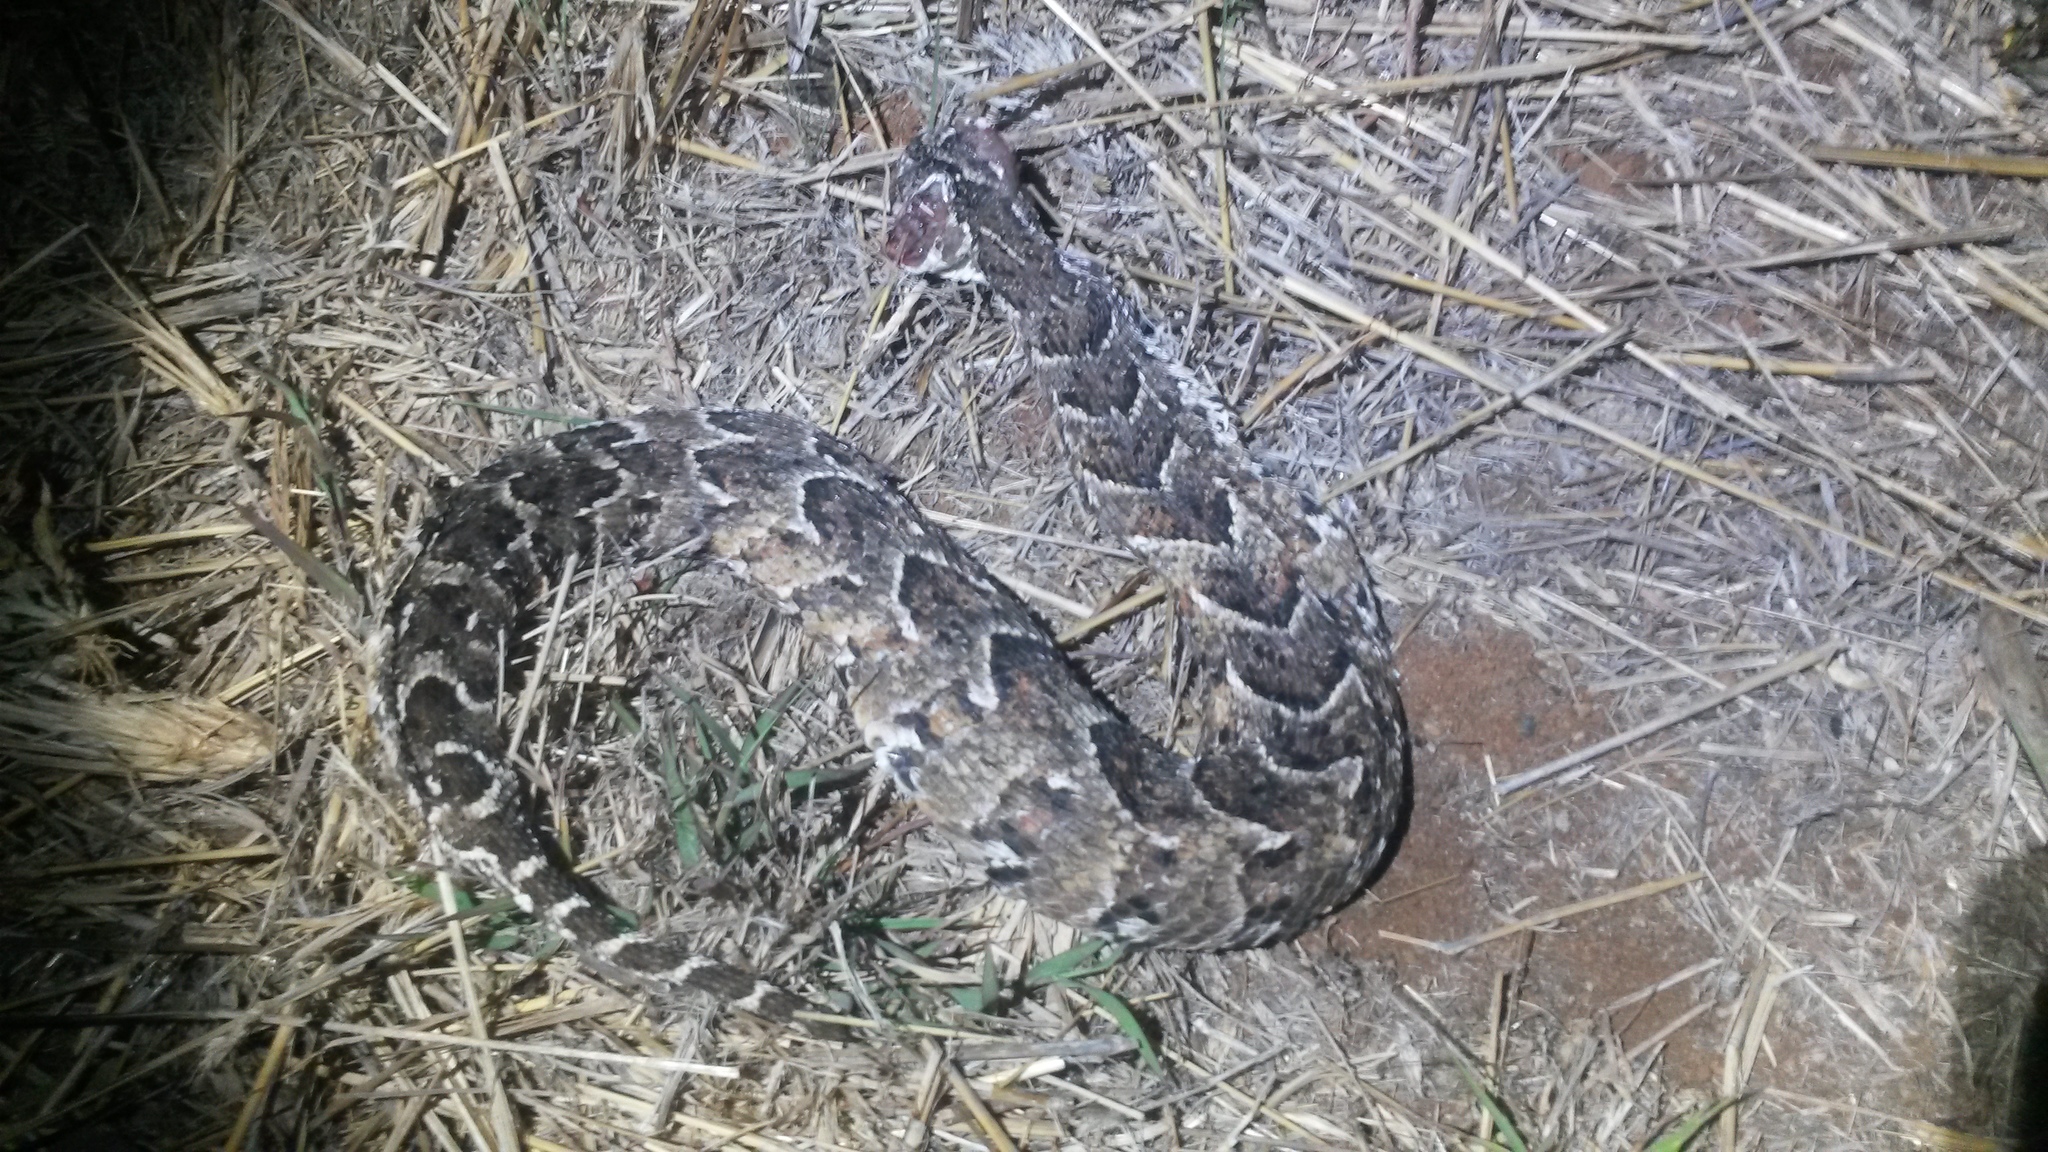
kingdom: Animalia
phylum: Chordata
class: Squamata
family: Viperidae
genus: Bitis
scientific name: Bitis arietans
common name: Puff adder
